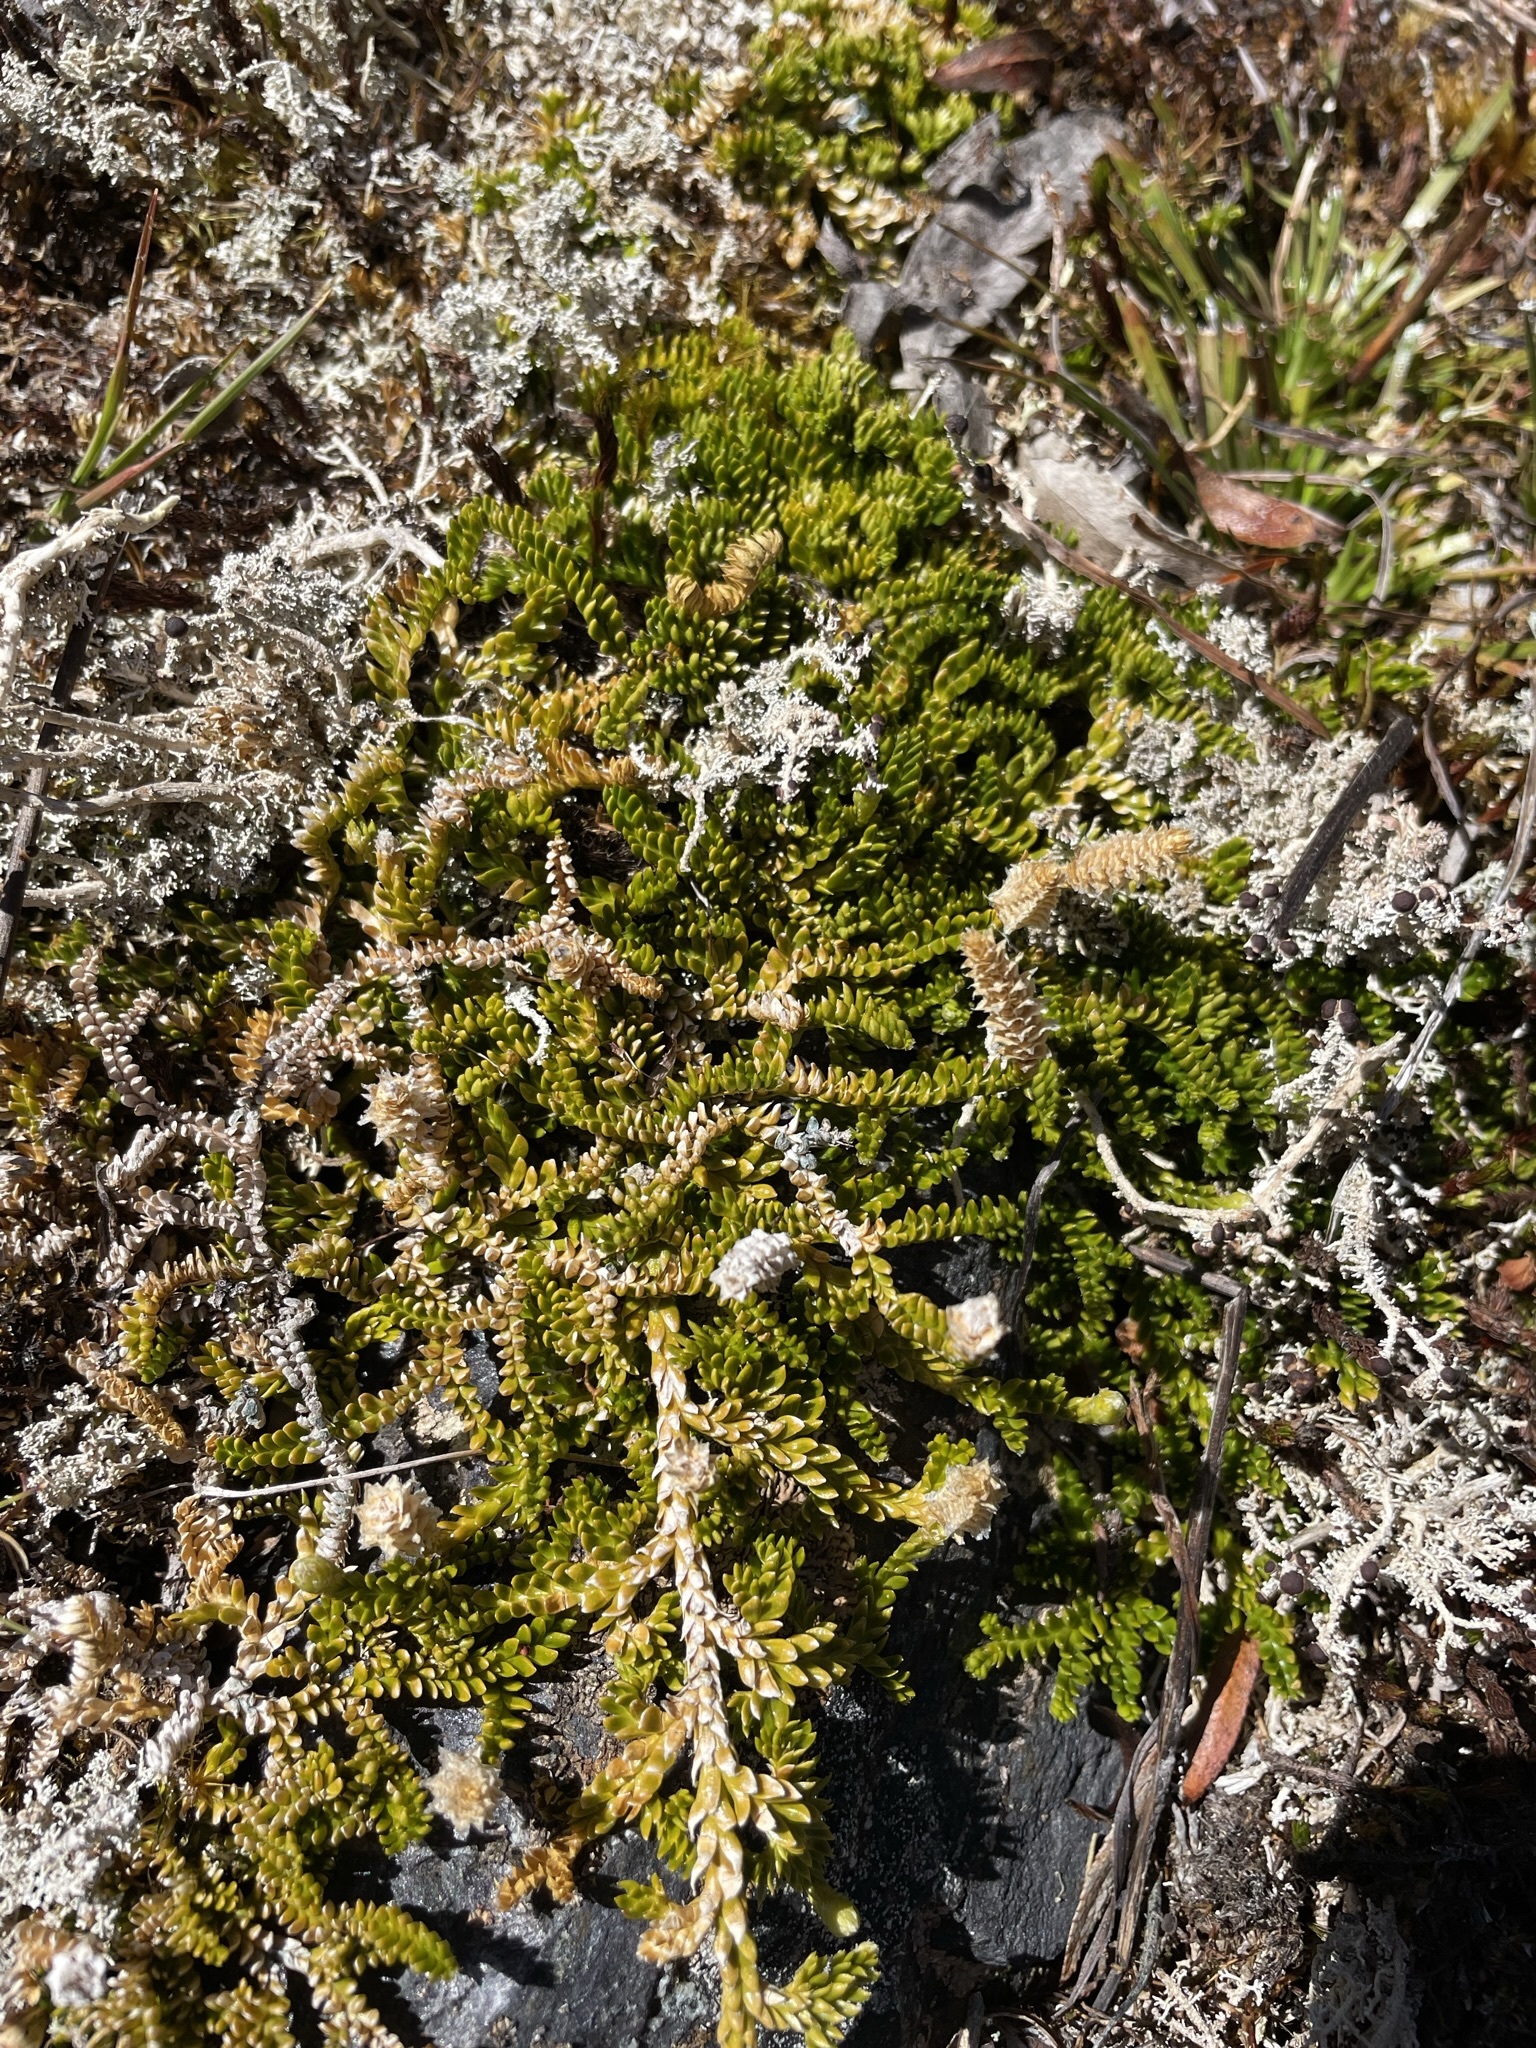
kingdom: Plantae
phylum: Tracheophyta
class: Lycopodiopsida
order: Lycopodiales
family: Lycopodiaceae
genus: Diphasium
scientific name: Diphasium scariosum
